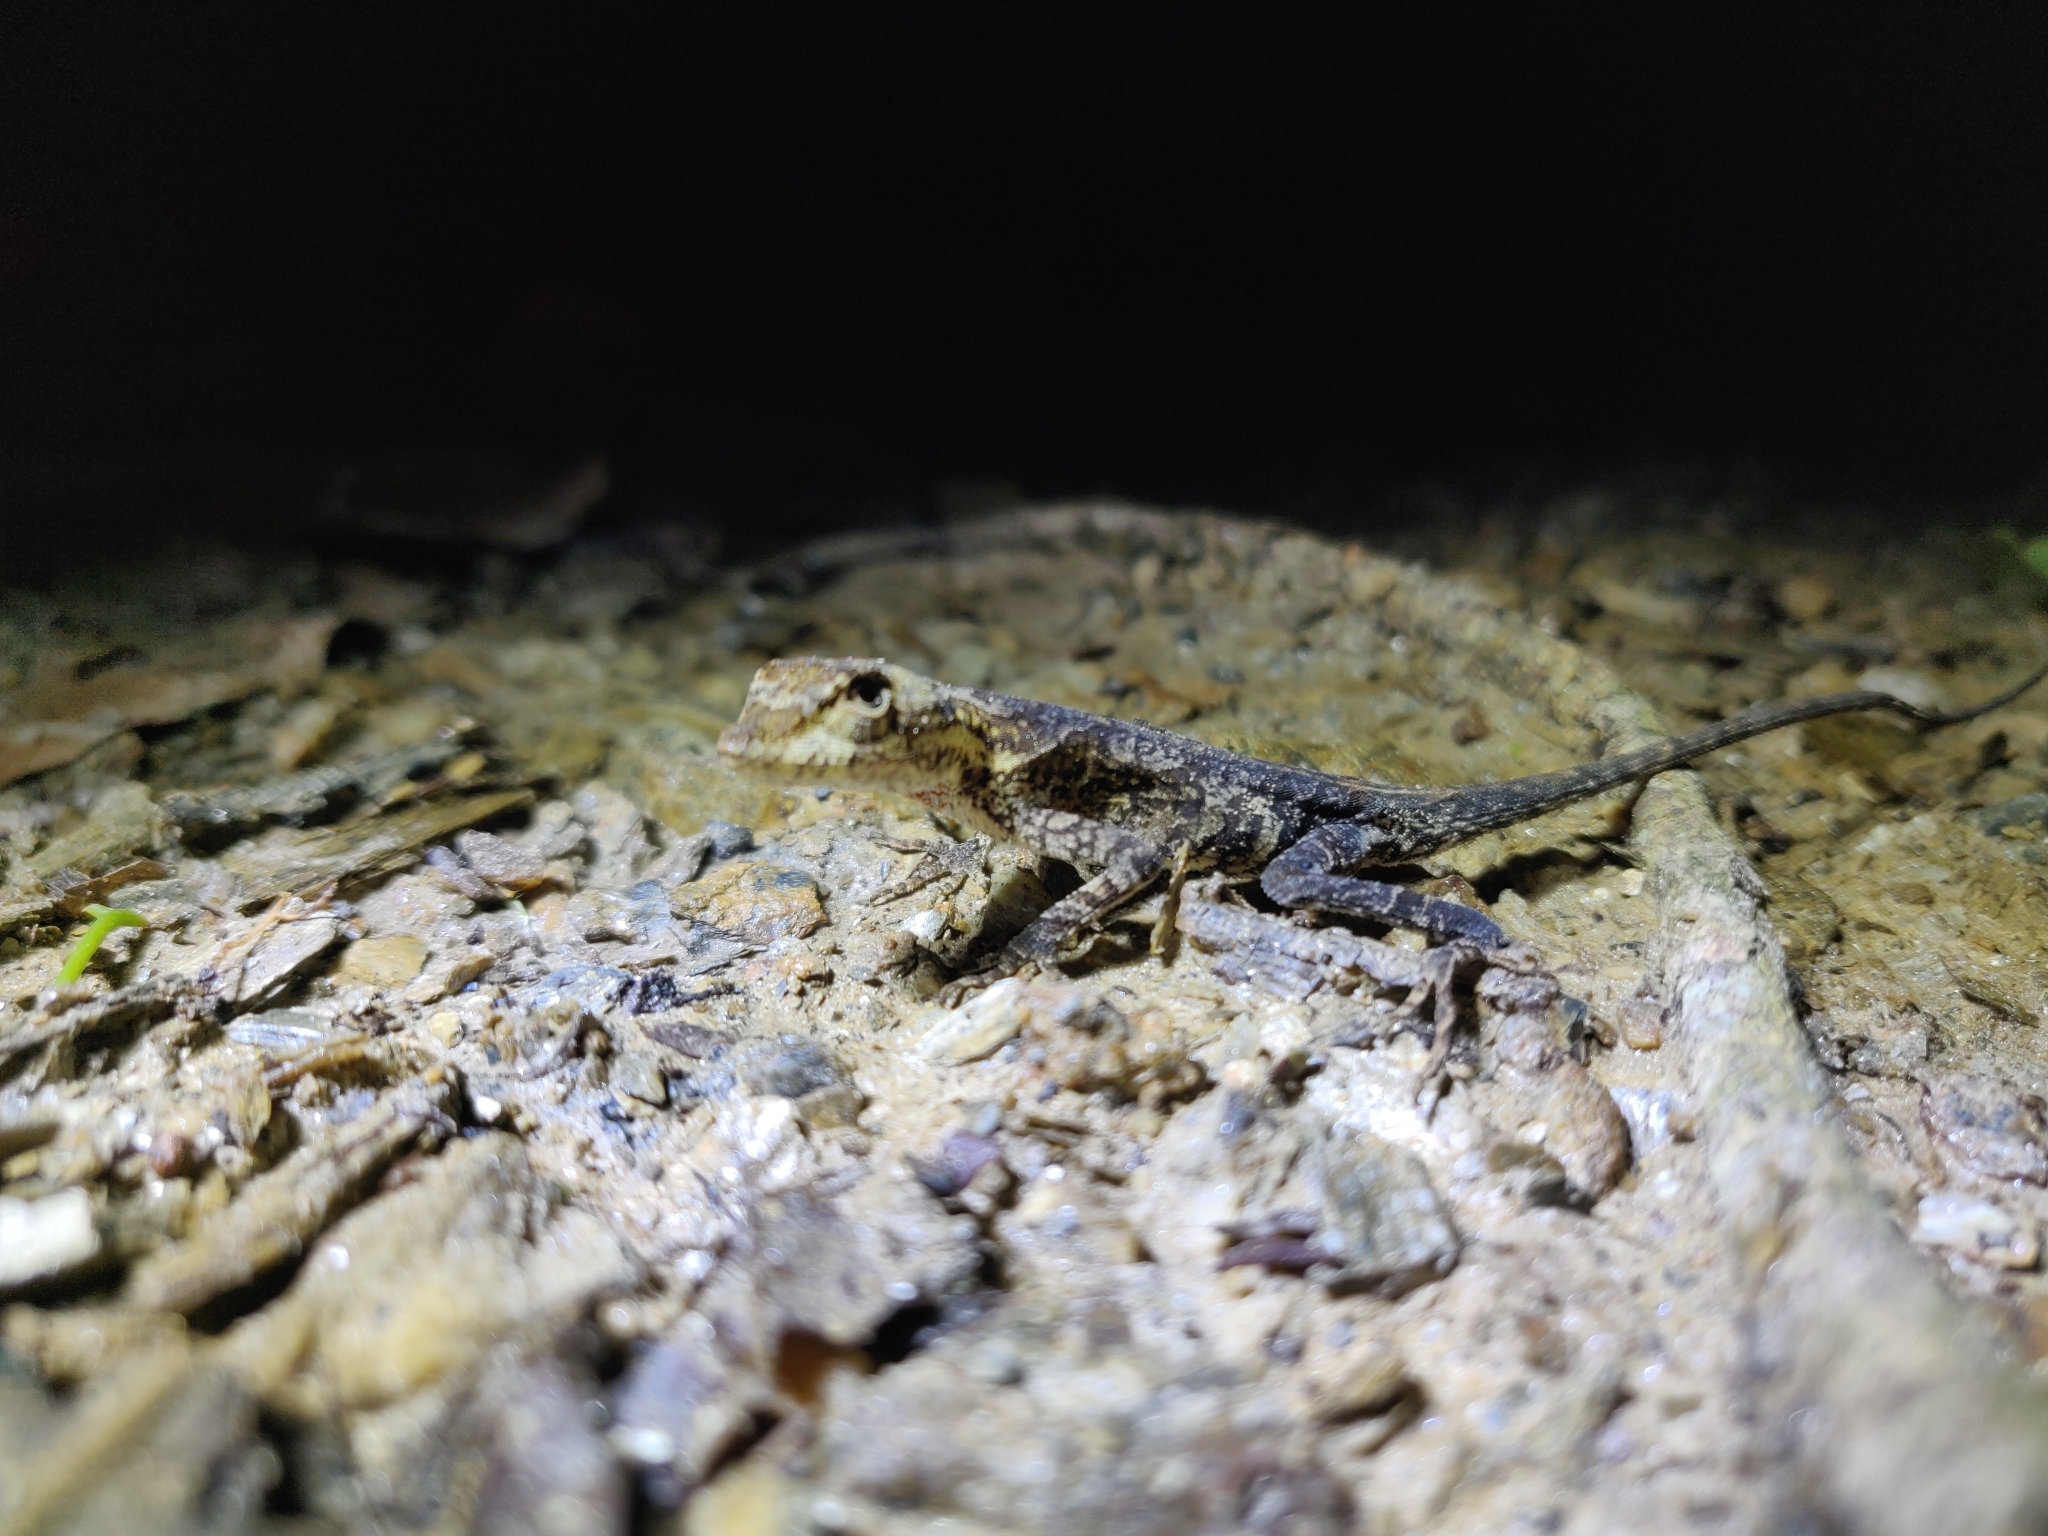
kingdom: Animalia
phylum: Chordata
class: Squamata
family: Dactyloidae
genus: Anolis
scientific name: Anolis planiceps
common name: Goldenscale anole
